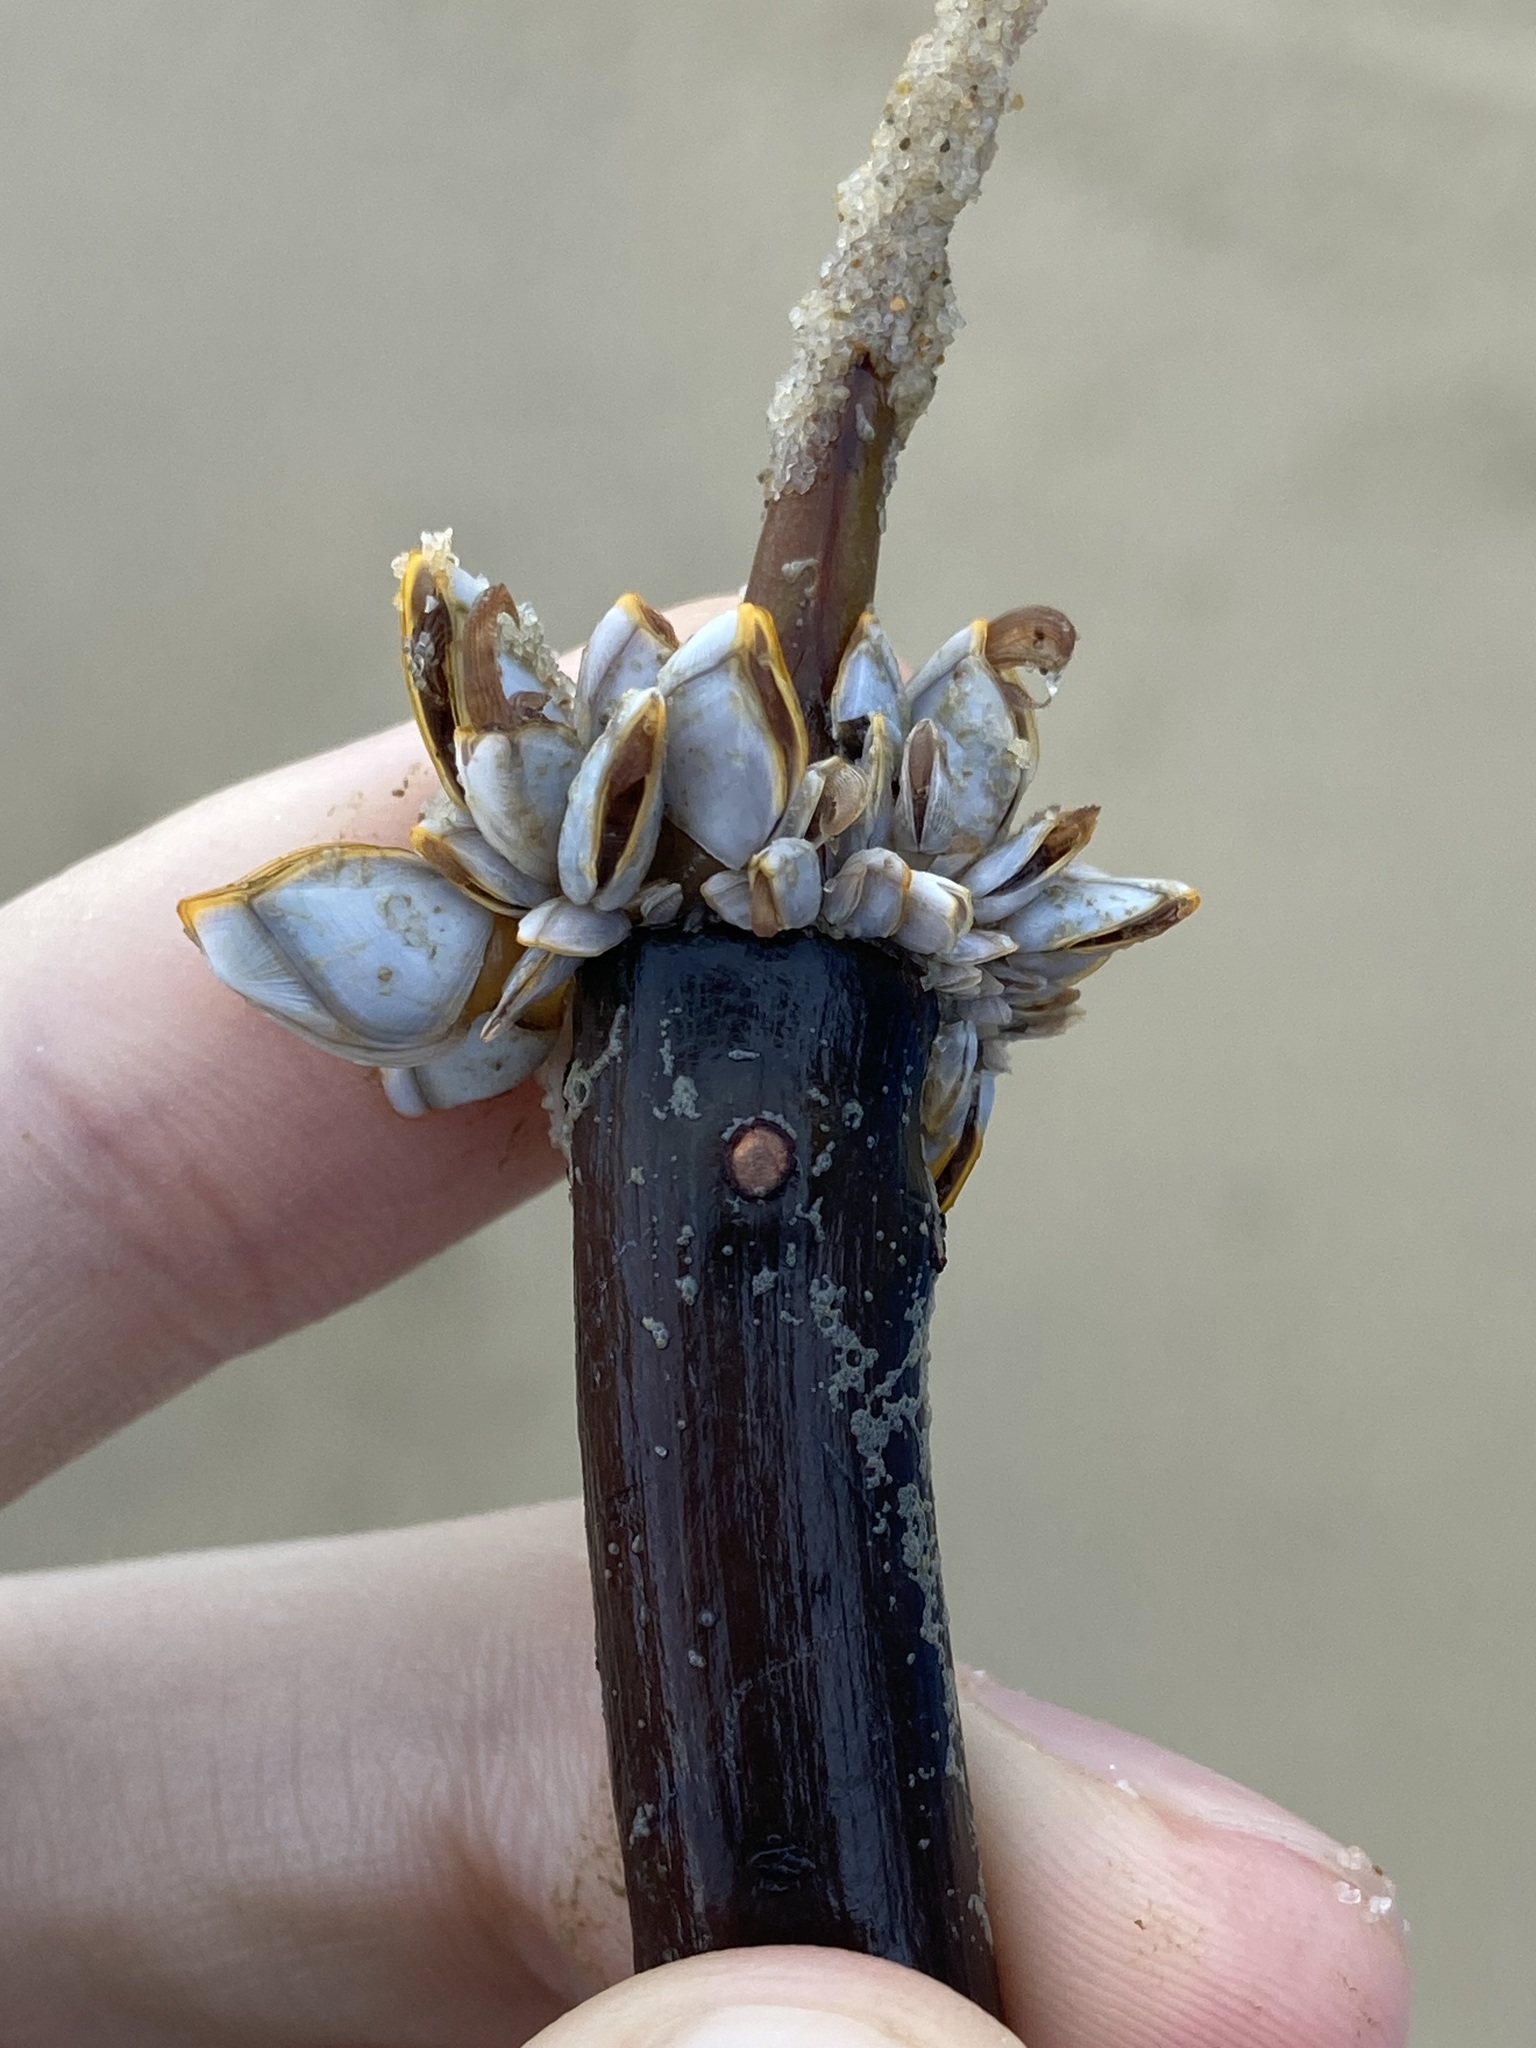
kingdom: Animalia
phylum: Arthropoda
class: Maxillopoda
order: Pedunculata
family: Lepadidae
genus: Lepas
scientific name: Lepas anserifera
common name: Goose barnacle
